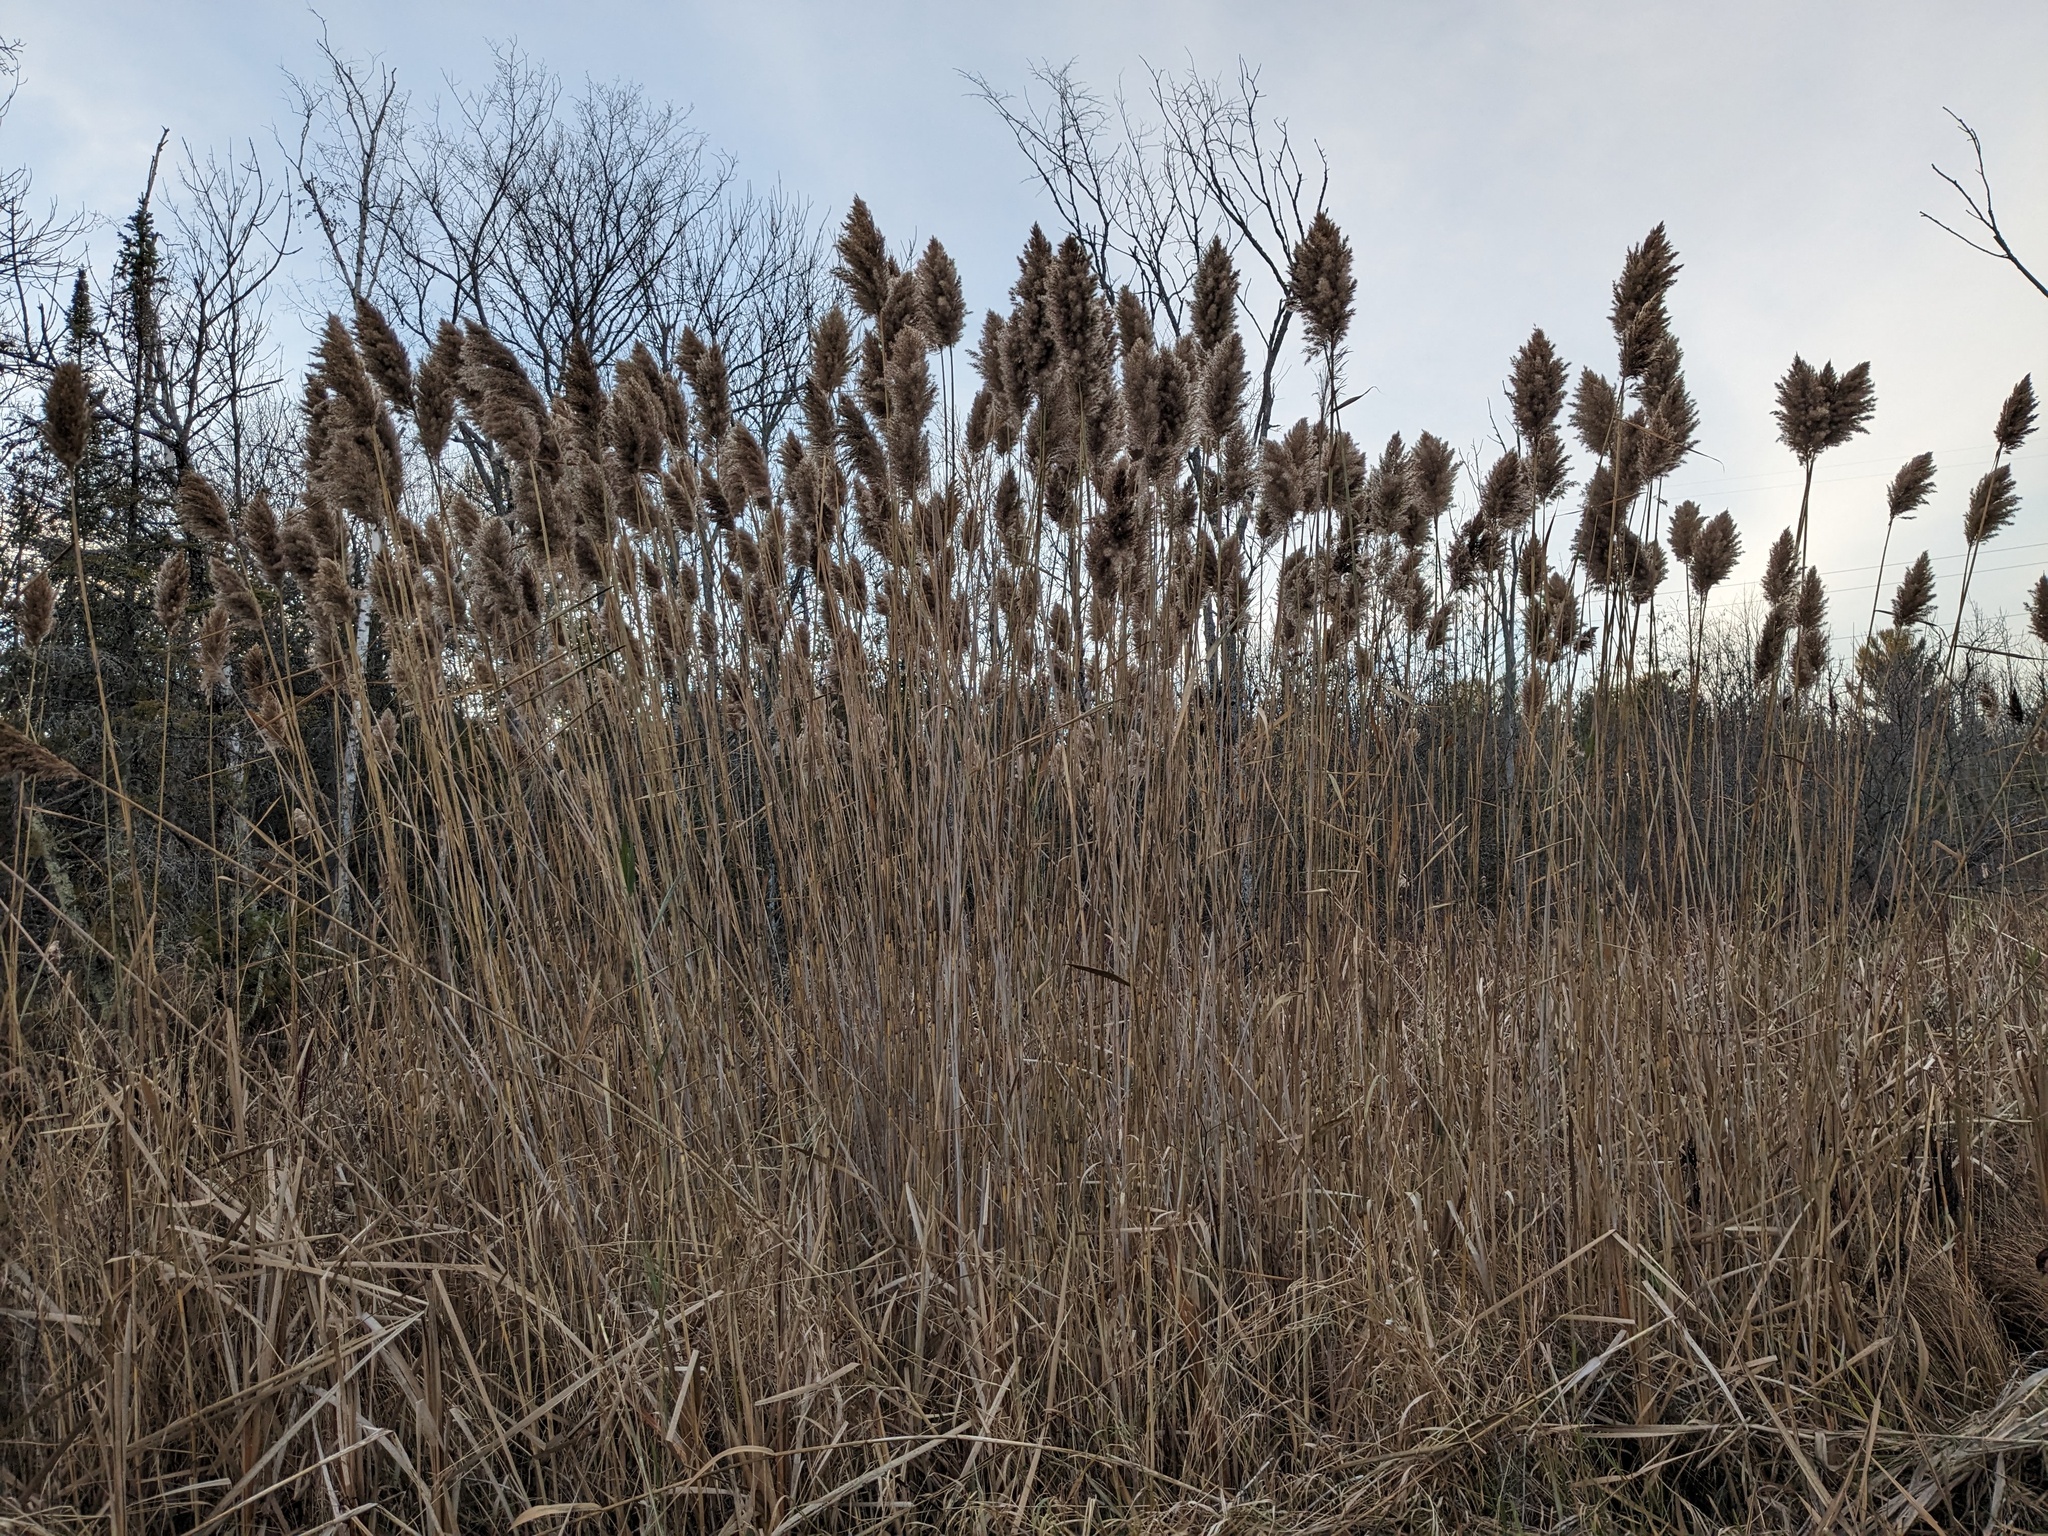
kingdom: Plantae
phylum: Tracheophyta
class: Liliopsida
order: Poales
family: Poaceae
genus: Phragmites
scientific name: Phragmites australis
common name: Common reed
